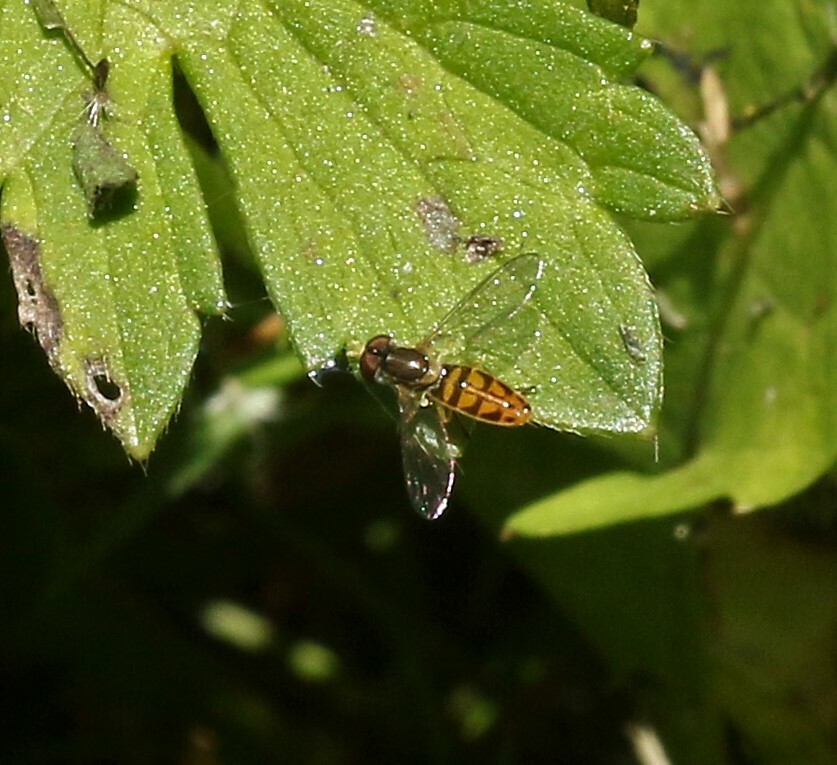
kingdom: Animalia
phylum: Arthropoda
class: Insecta
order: Diptera
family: Syrphidae
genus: Toxomerus
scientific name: Toxomerus marginatus
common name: Syrphid fly
